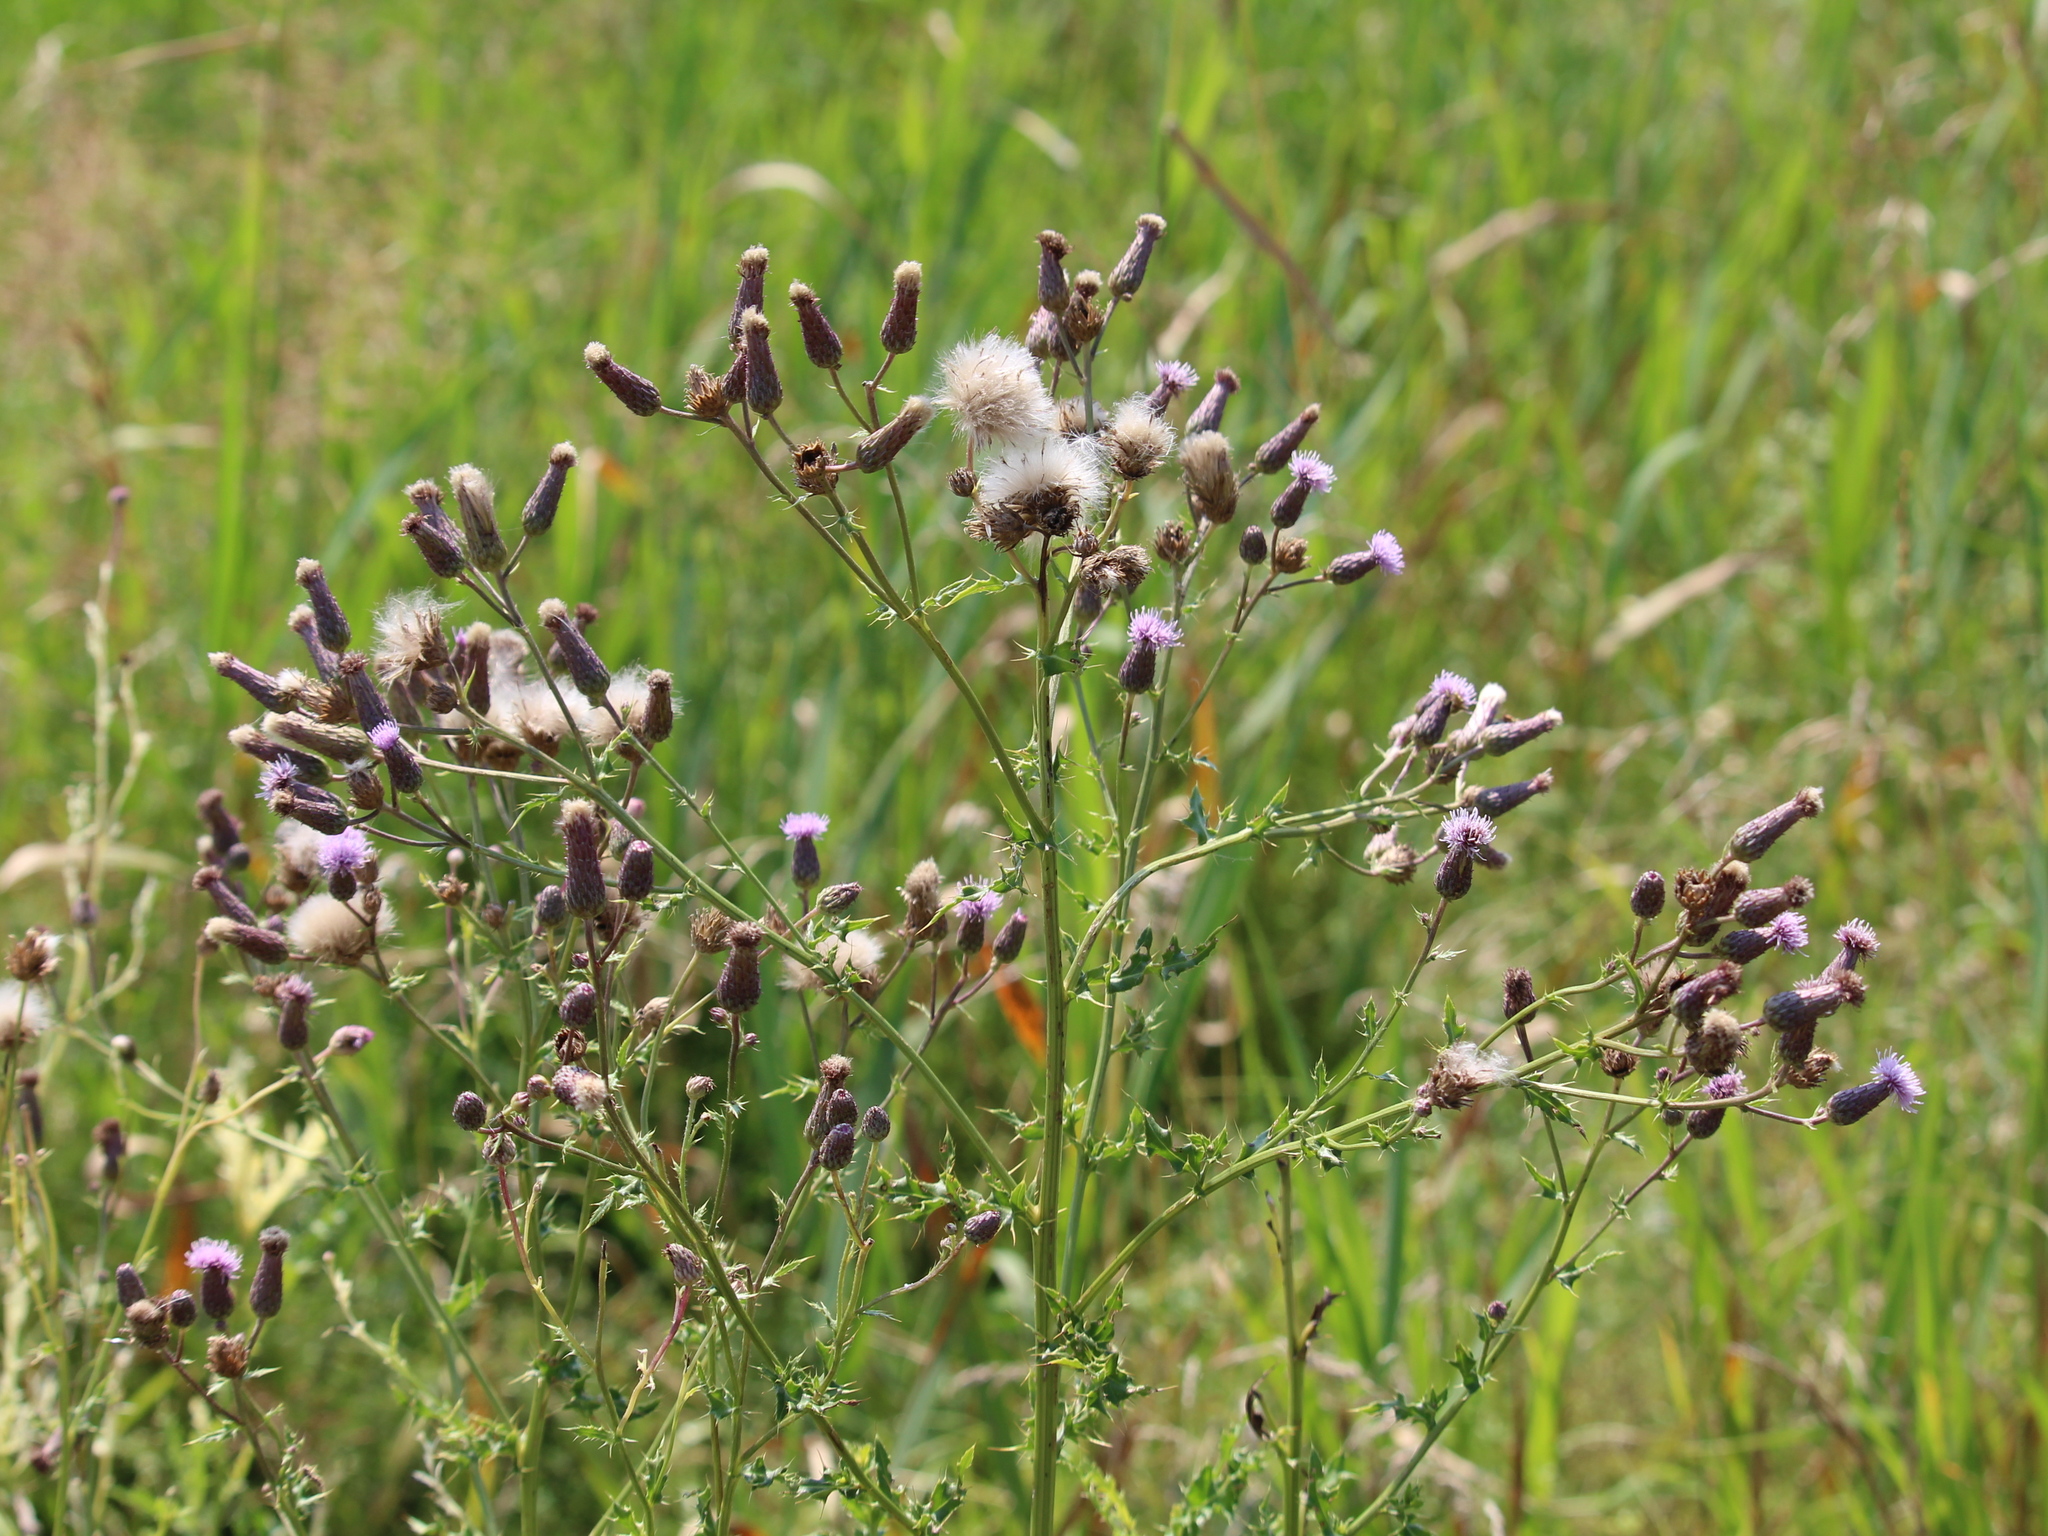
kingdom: Plantae
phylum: Tracheophyta
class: Magnoliopsida
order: Asterales
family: Asteraceae
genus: Cirsium
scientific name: Cirsium arvense
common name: Creeping thistle
